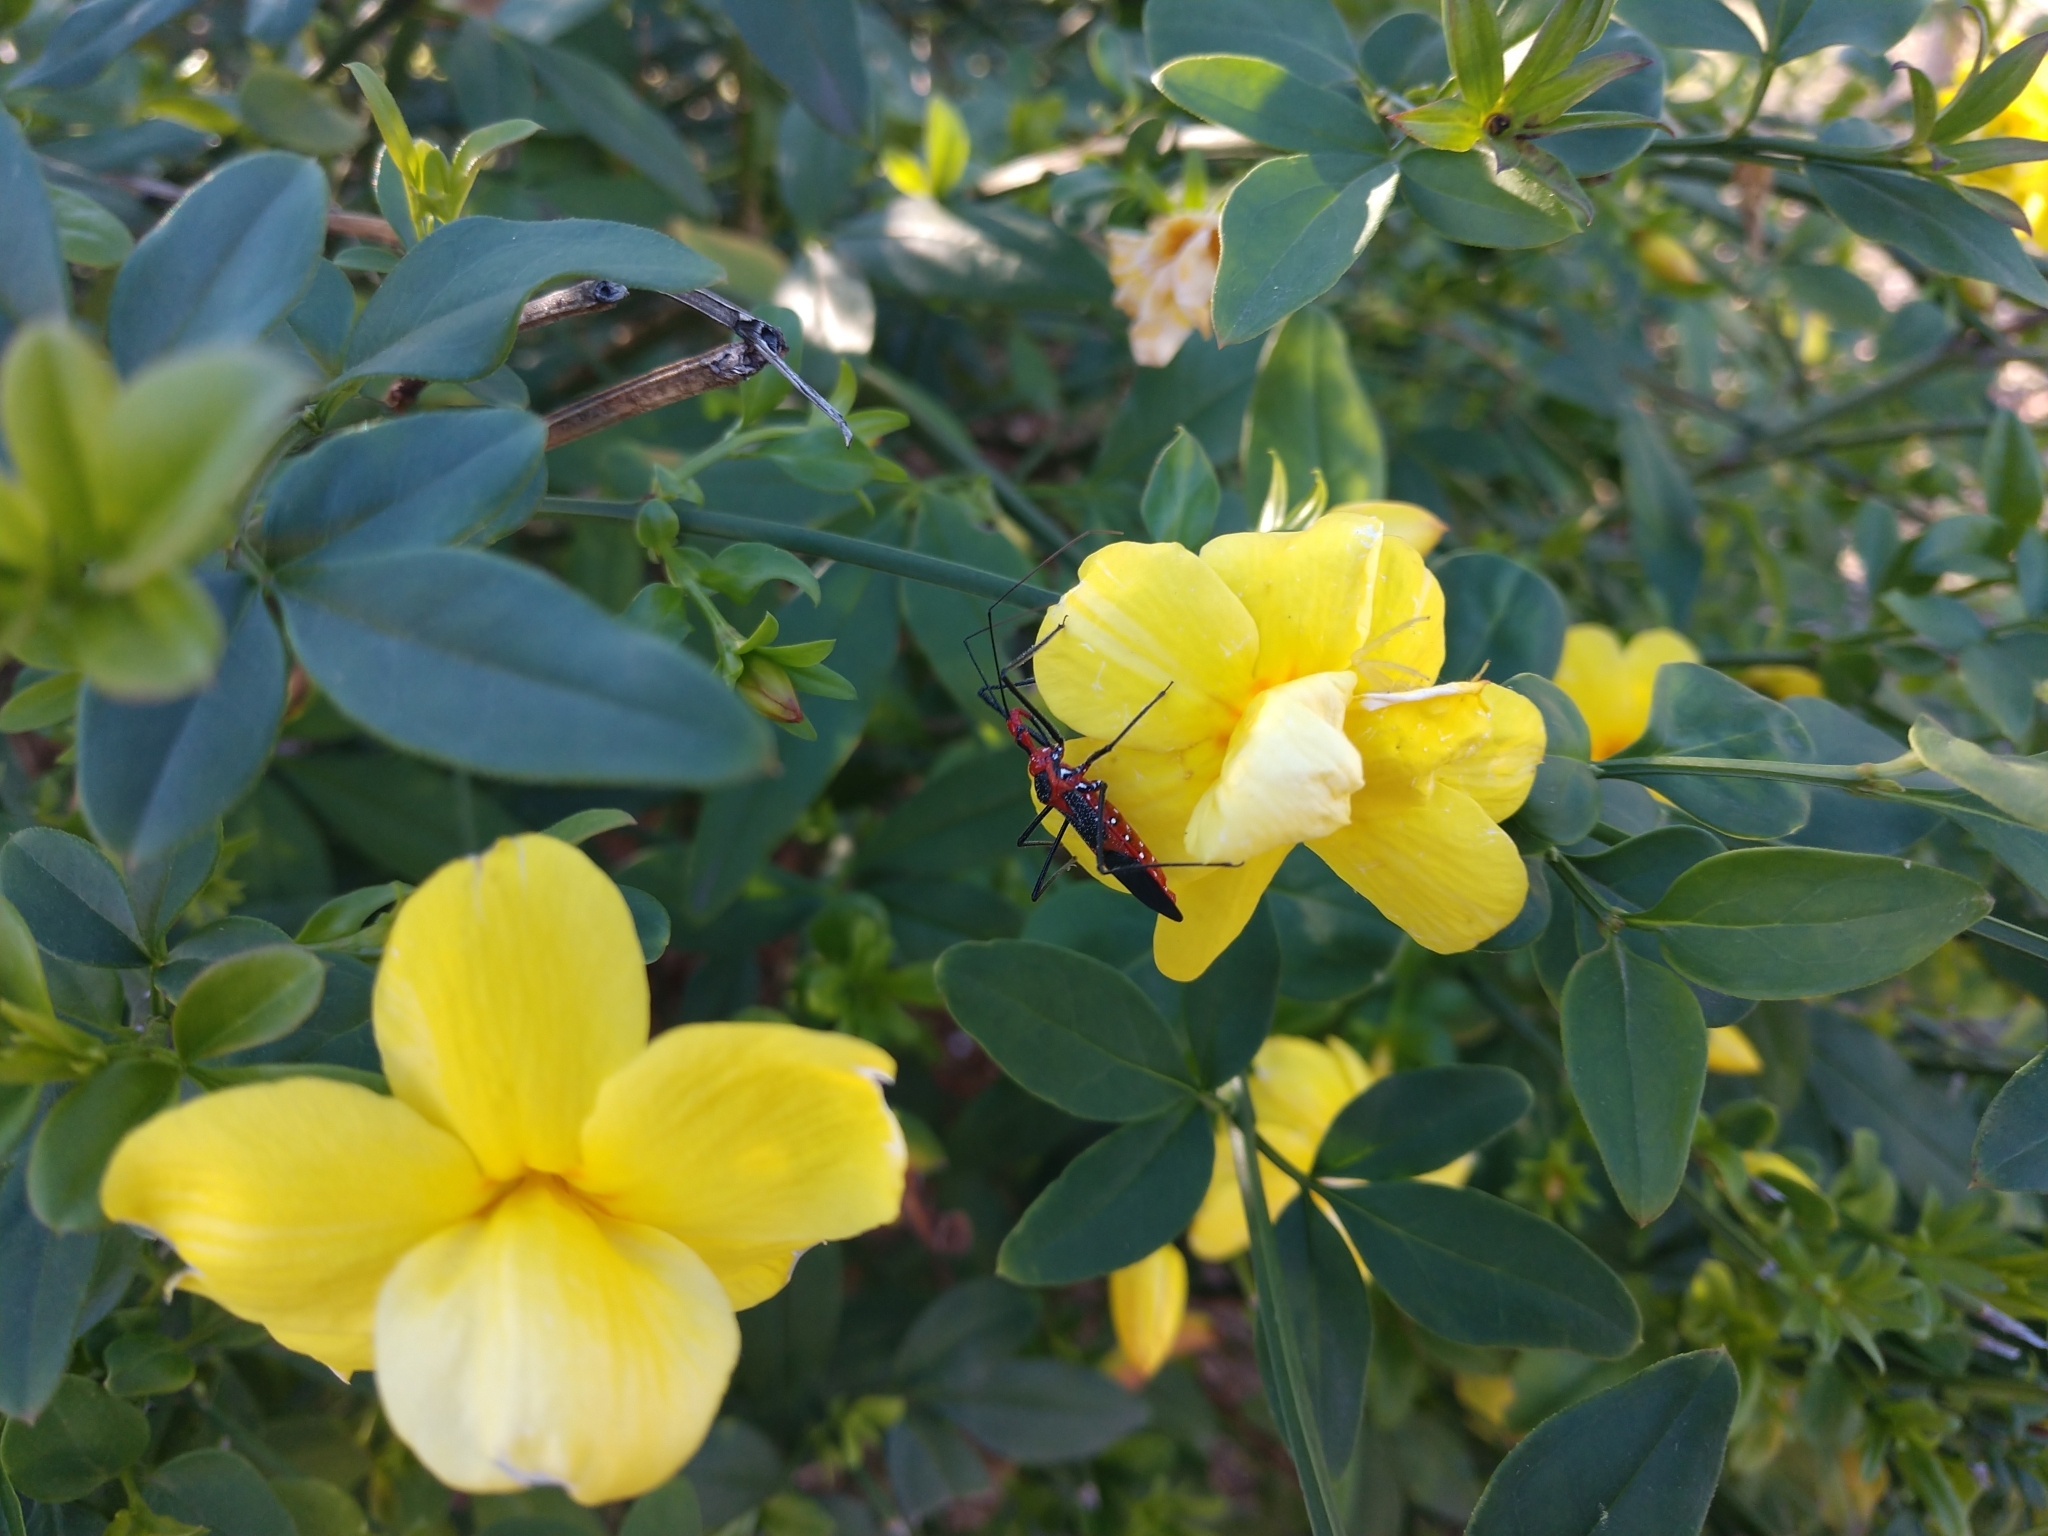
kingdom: Animalia
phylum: Arthropoda
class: Insecta
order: Hemiptera
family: Reduviidae
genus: Zelus
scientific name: Zelus longipes
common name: Milkweed assassin bug
